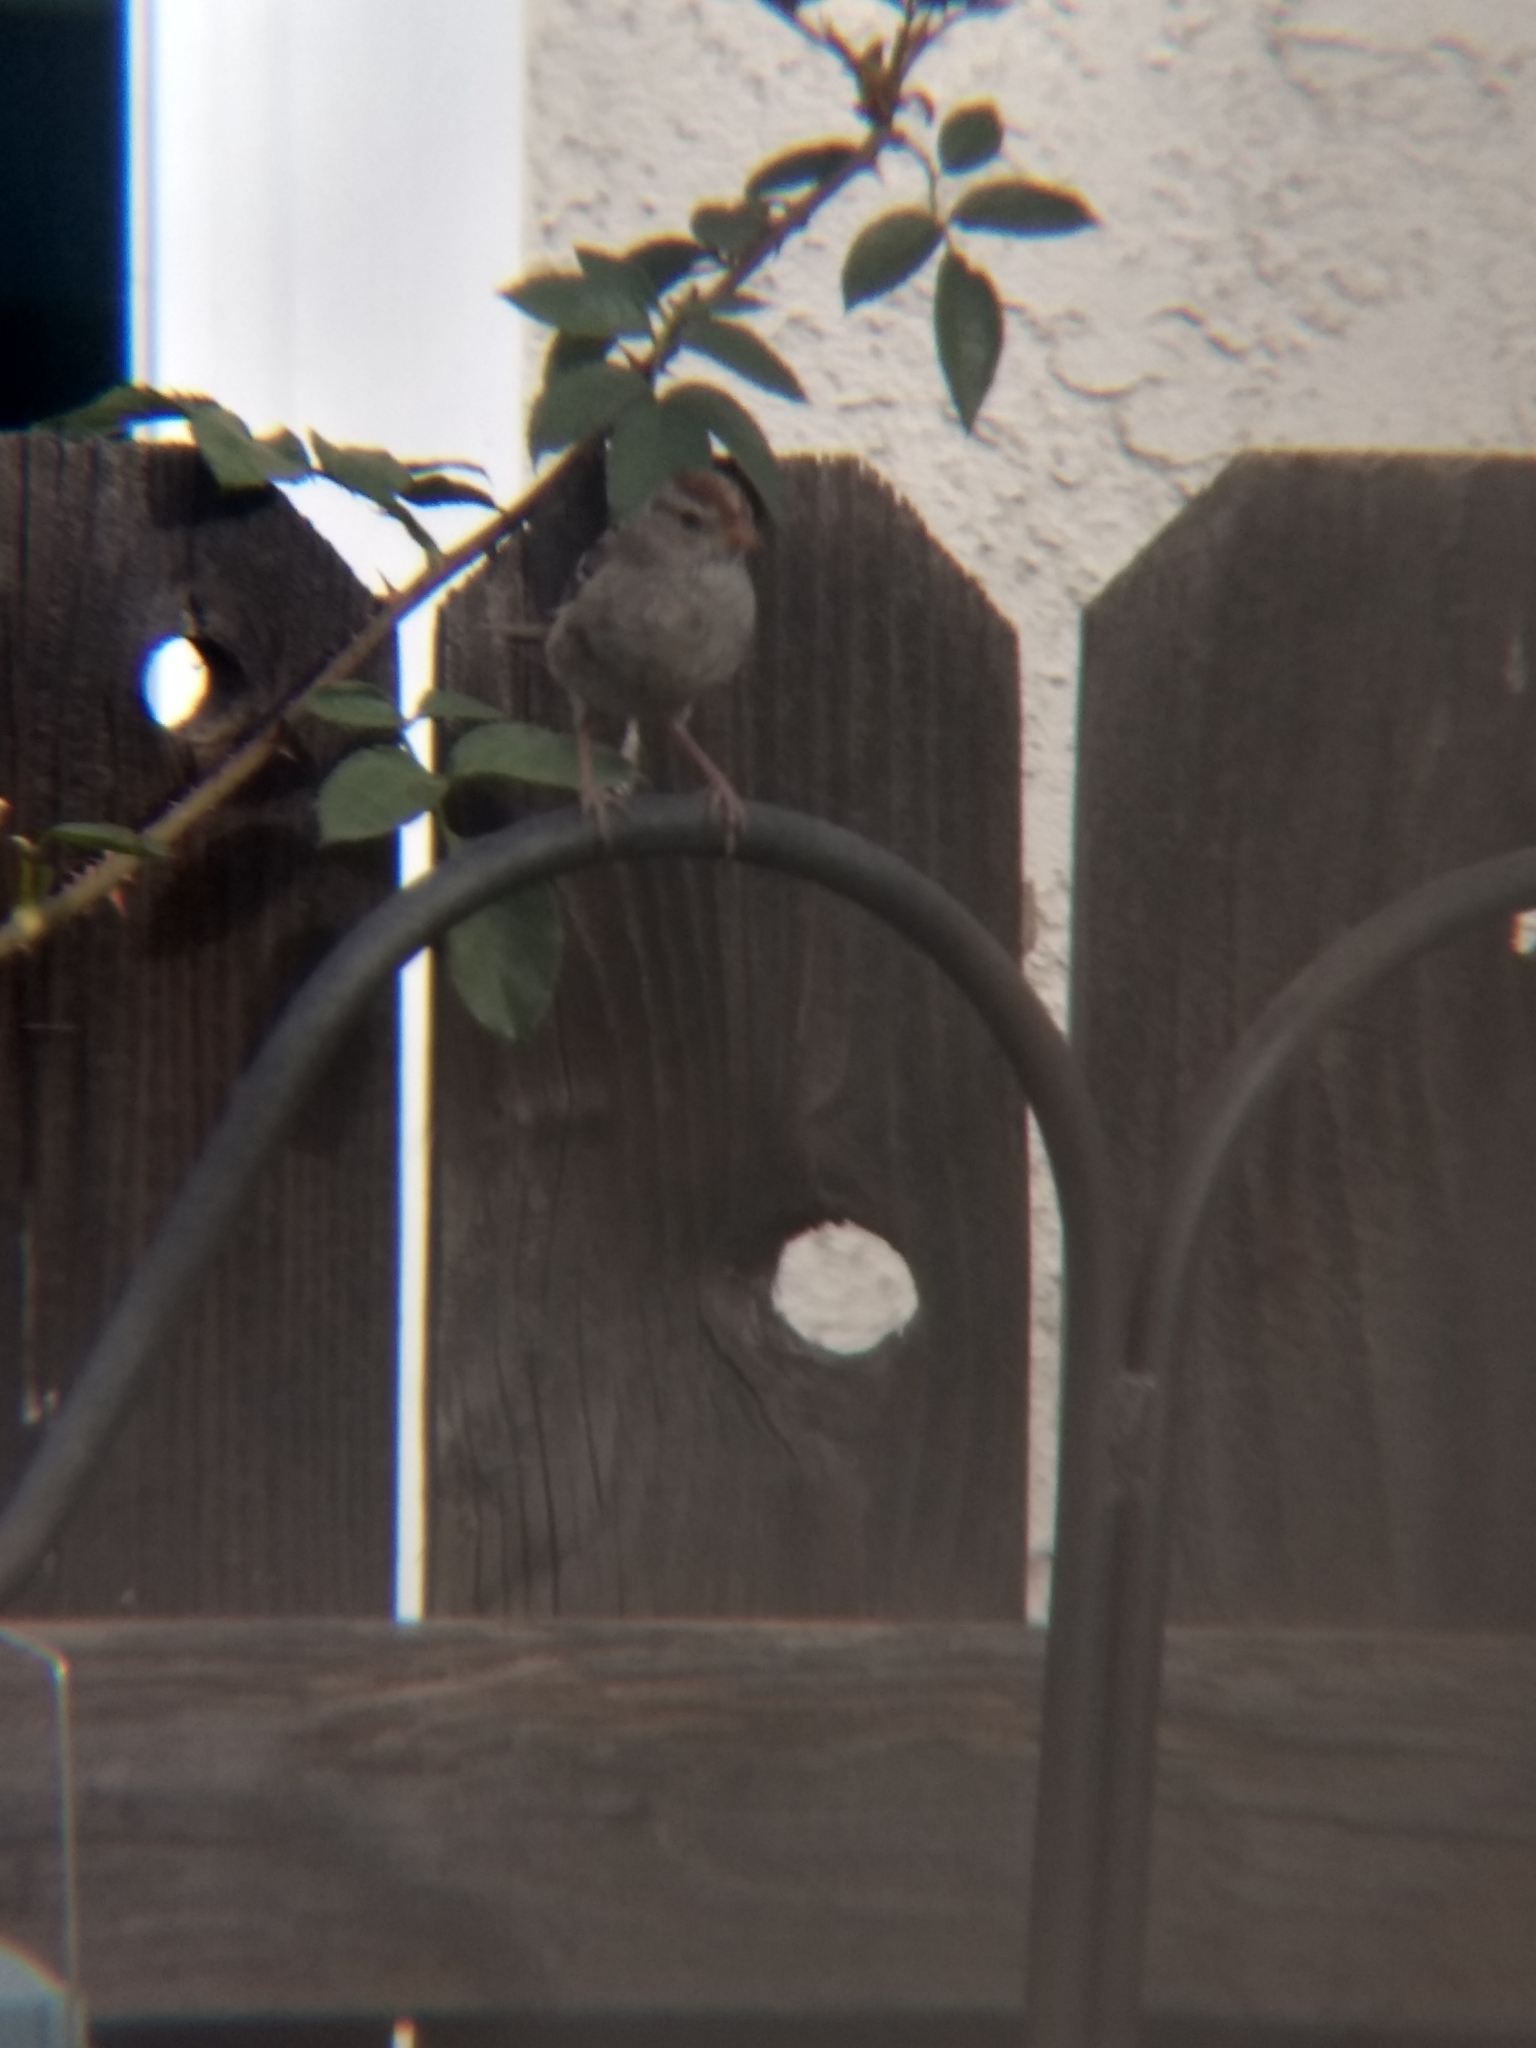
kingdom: Animalia
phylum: Chordata
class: Aves
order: Passeriformes
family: Passerellidae
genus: Zonotrichia
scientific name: Zonotrichia leucophrys
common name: White-crowned sparrow
